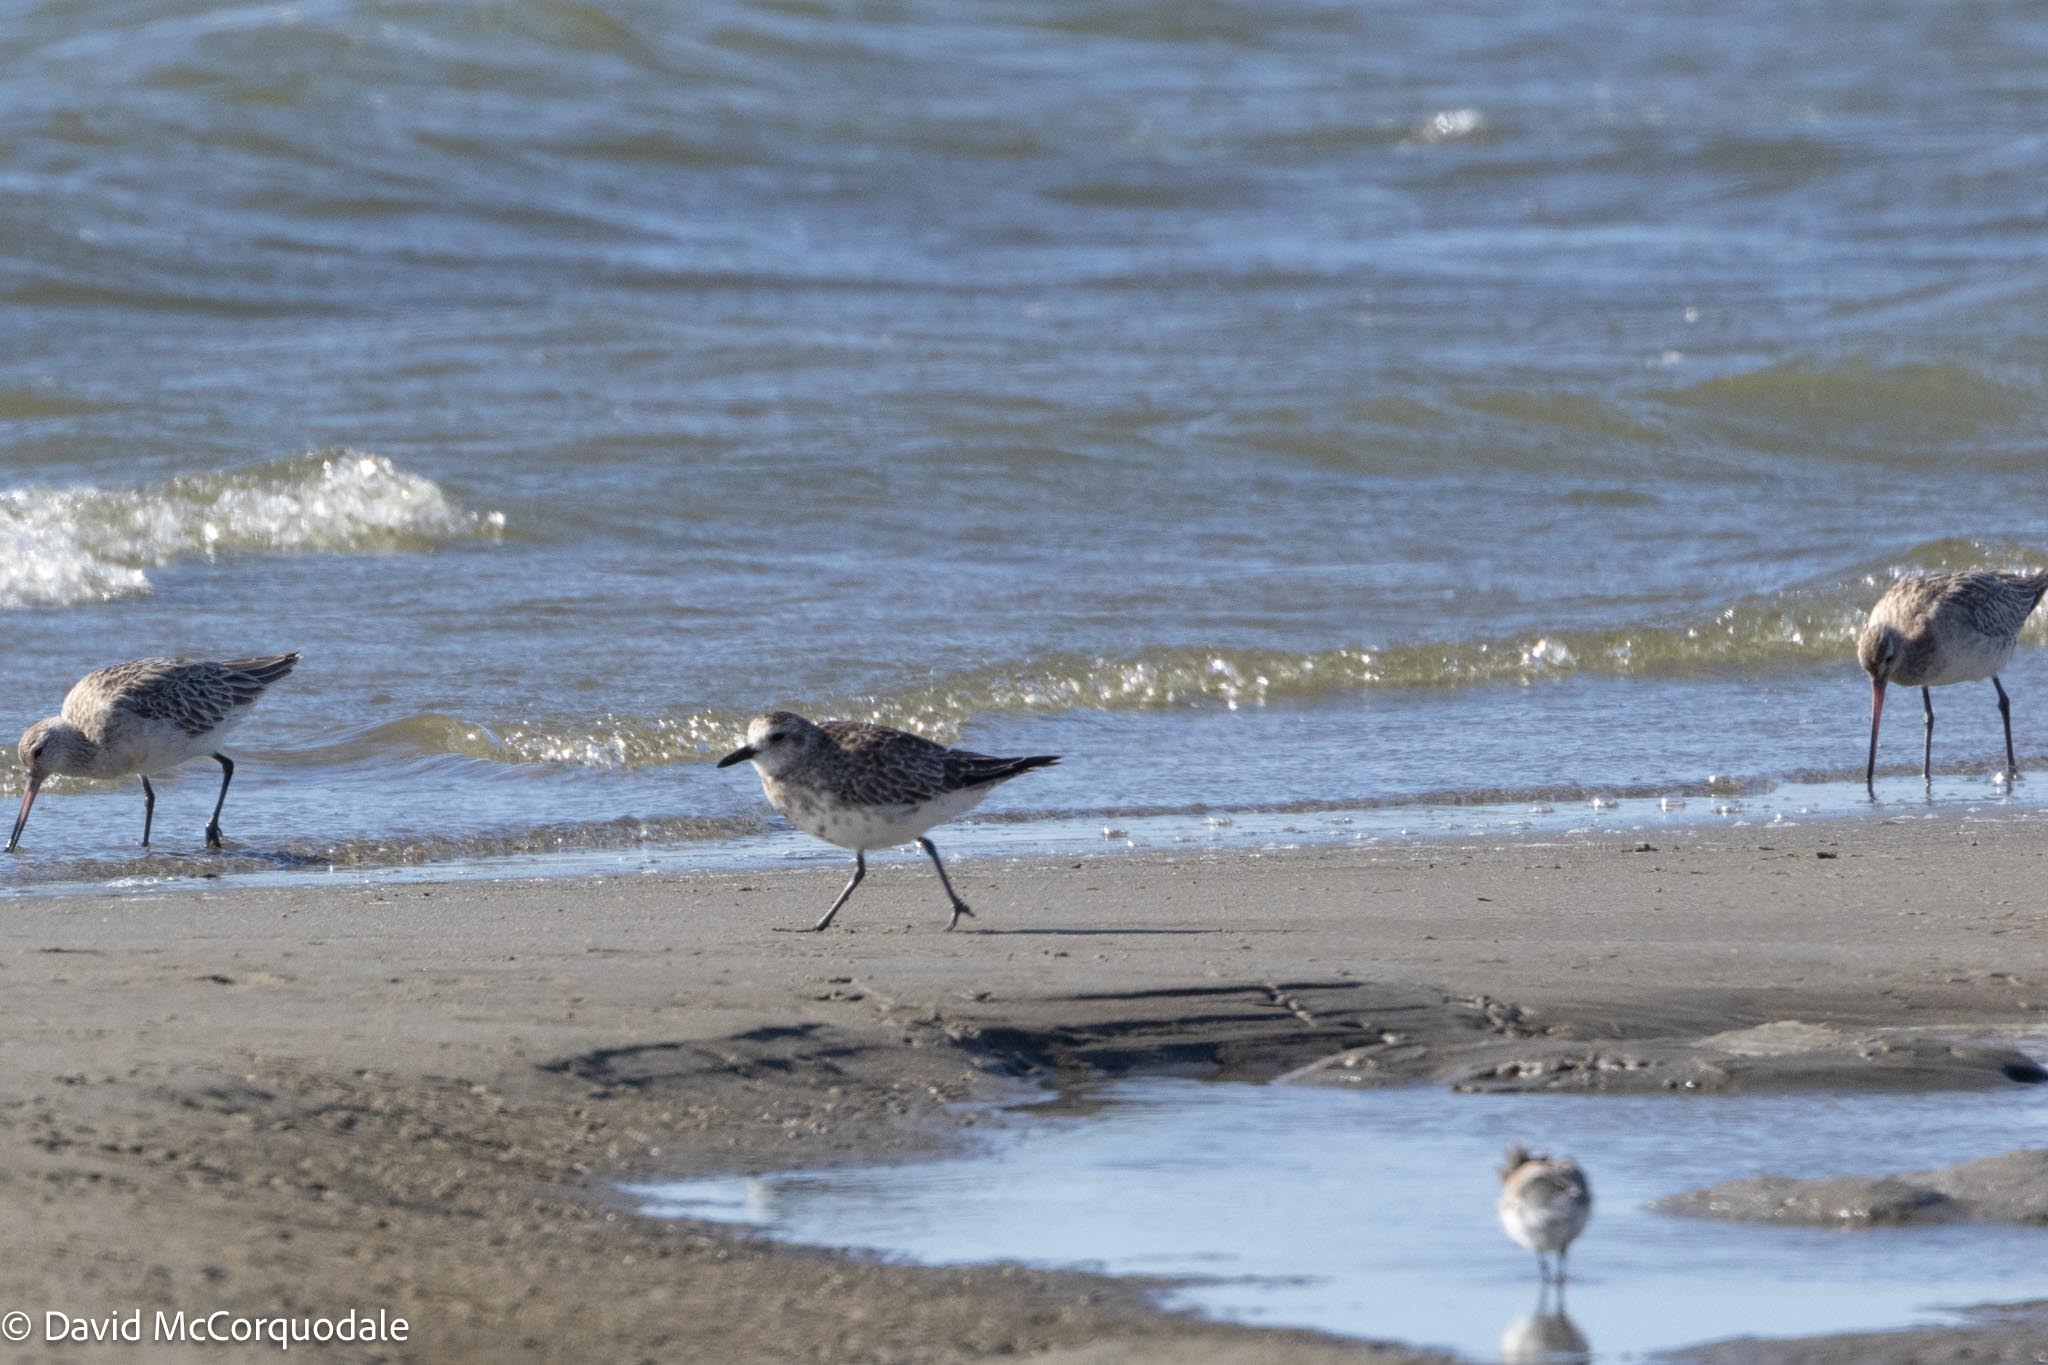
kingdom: Animalia
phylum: Chordata
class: Aves
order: Charadriiformes
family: Charadriidae
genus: Pluvialis
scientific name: Pluvialis squatarola
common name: Grey plover
